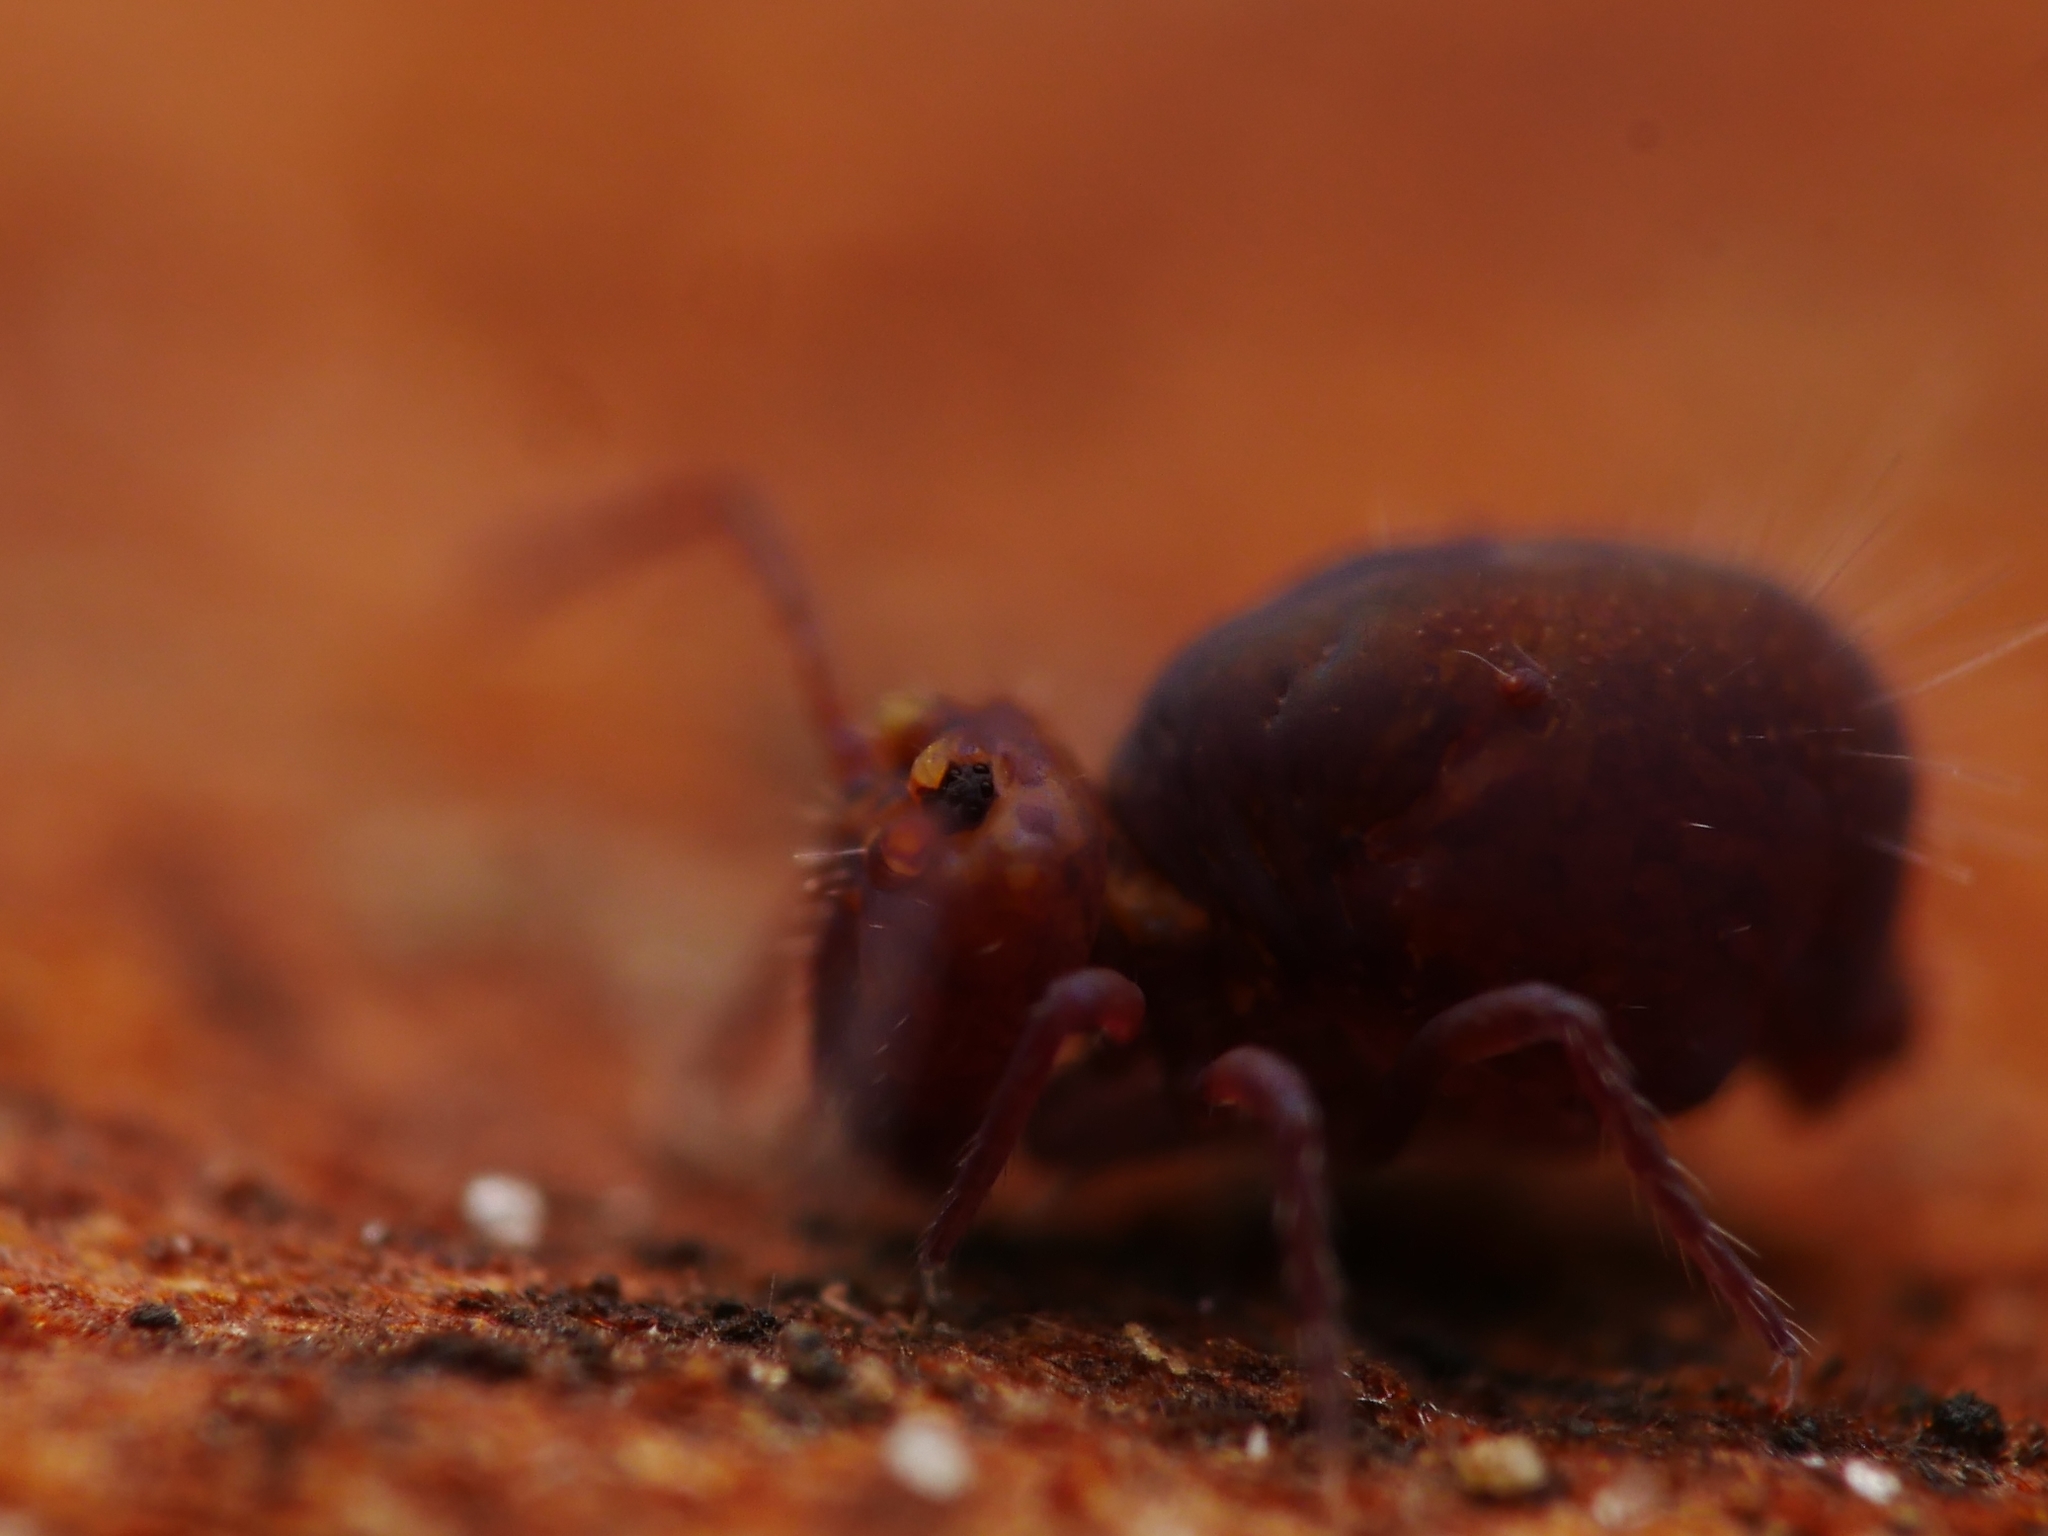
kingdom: Animalia
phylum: Arthropoda
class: Collembola
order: Symphypleona
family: Dicyrtomidae
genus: Dicyrtoma
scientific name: Dicyrtoma fusca
